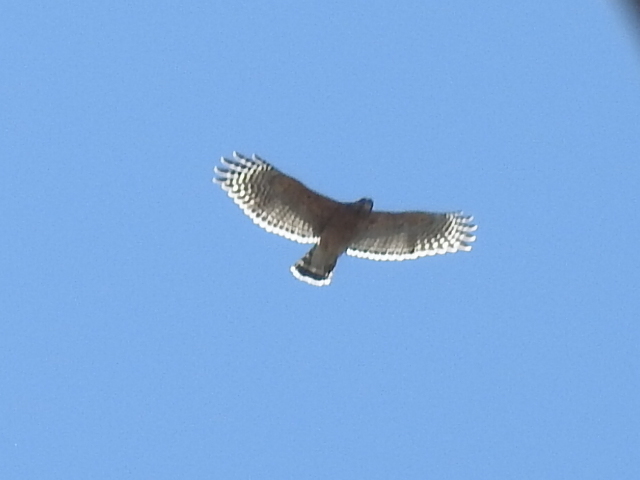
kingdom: Animalia
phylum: Chordata
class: Aves
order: Accipitriformes
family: Accipitridae
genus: Buteo
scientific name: Buteo lineatus
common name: Red-shouldered hawk
